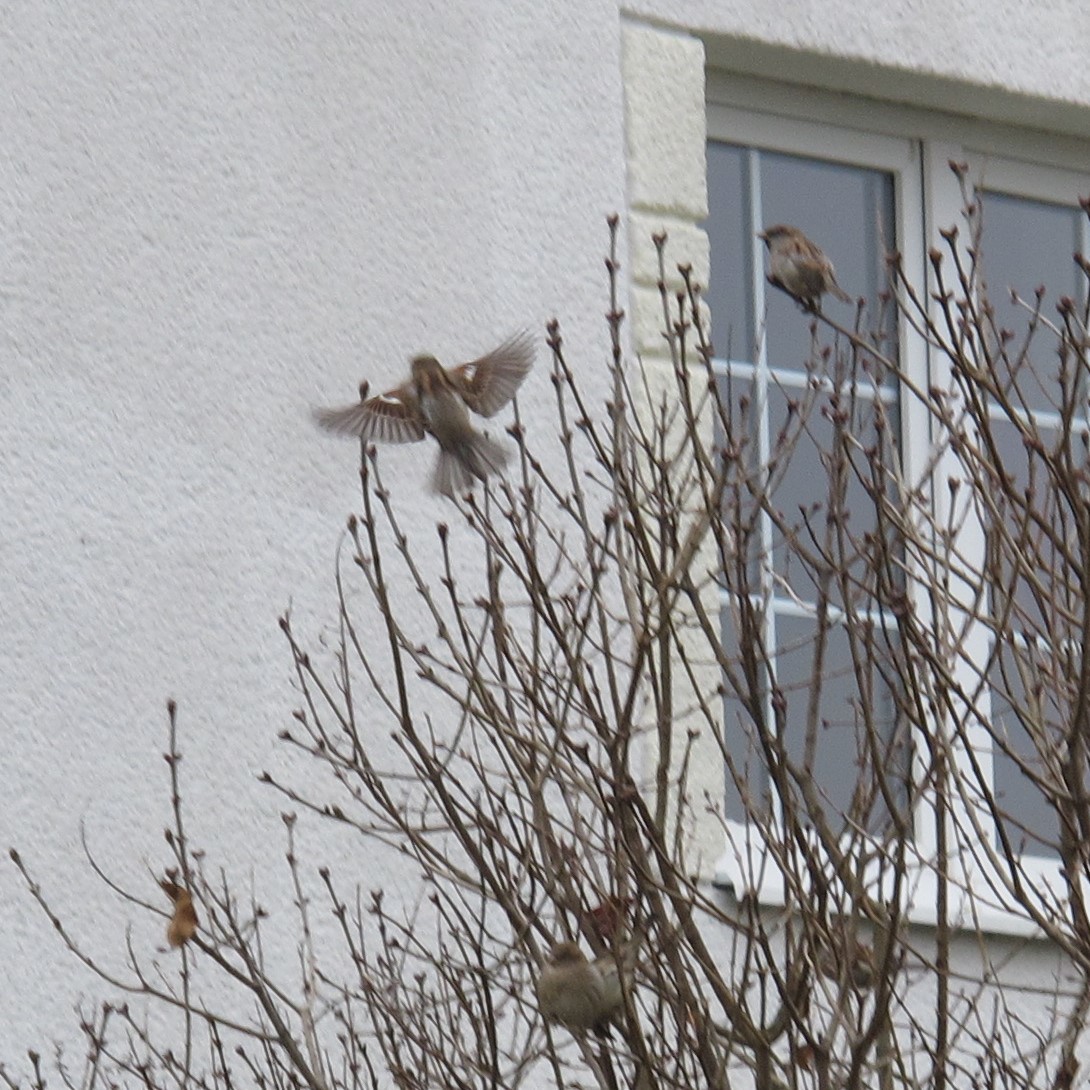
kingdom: Animalia
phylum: Chordata
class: Aves
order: Passeriformes
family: Passeridae
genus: Passer
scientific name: Passer domesticus
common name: House sparrow
